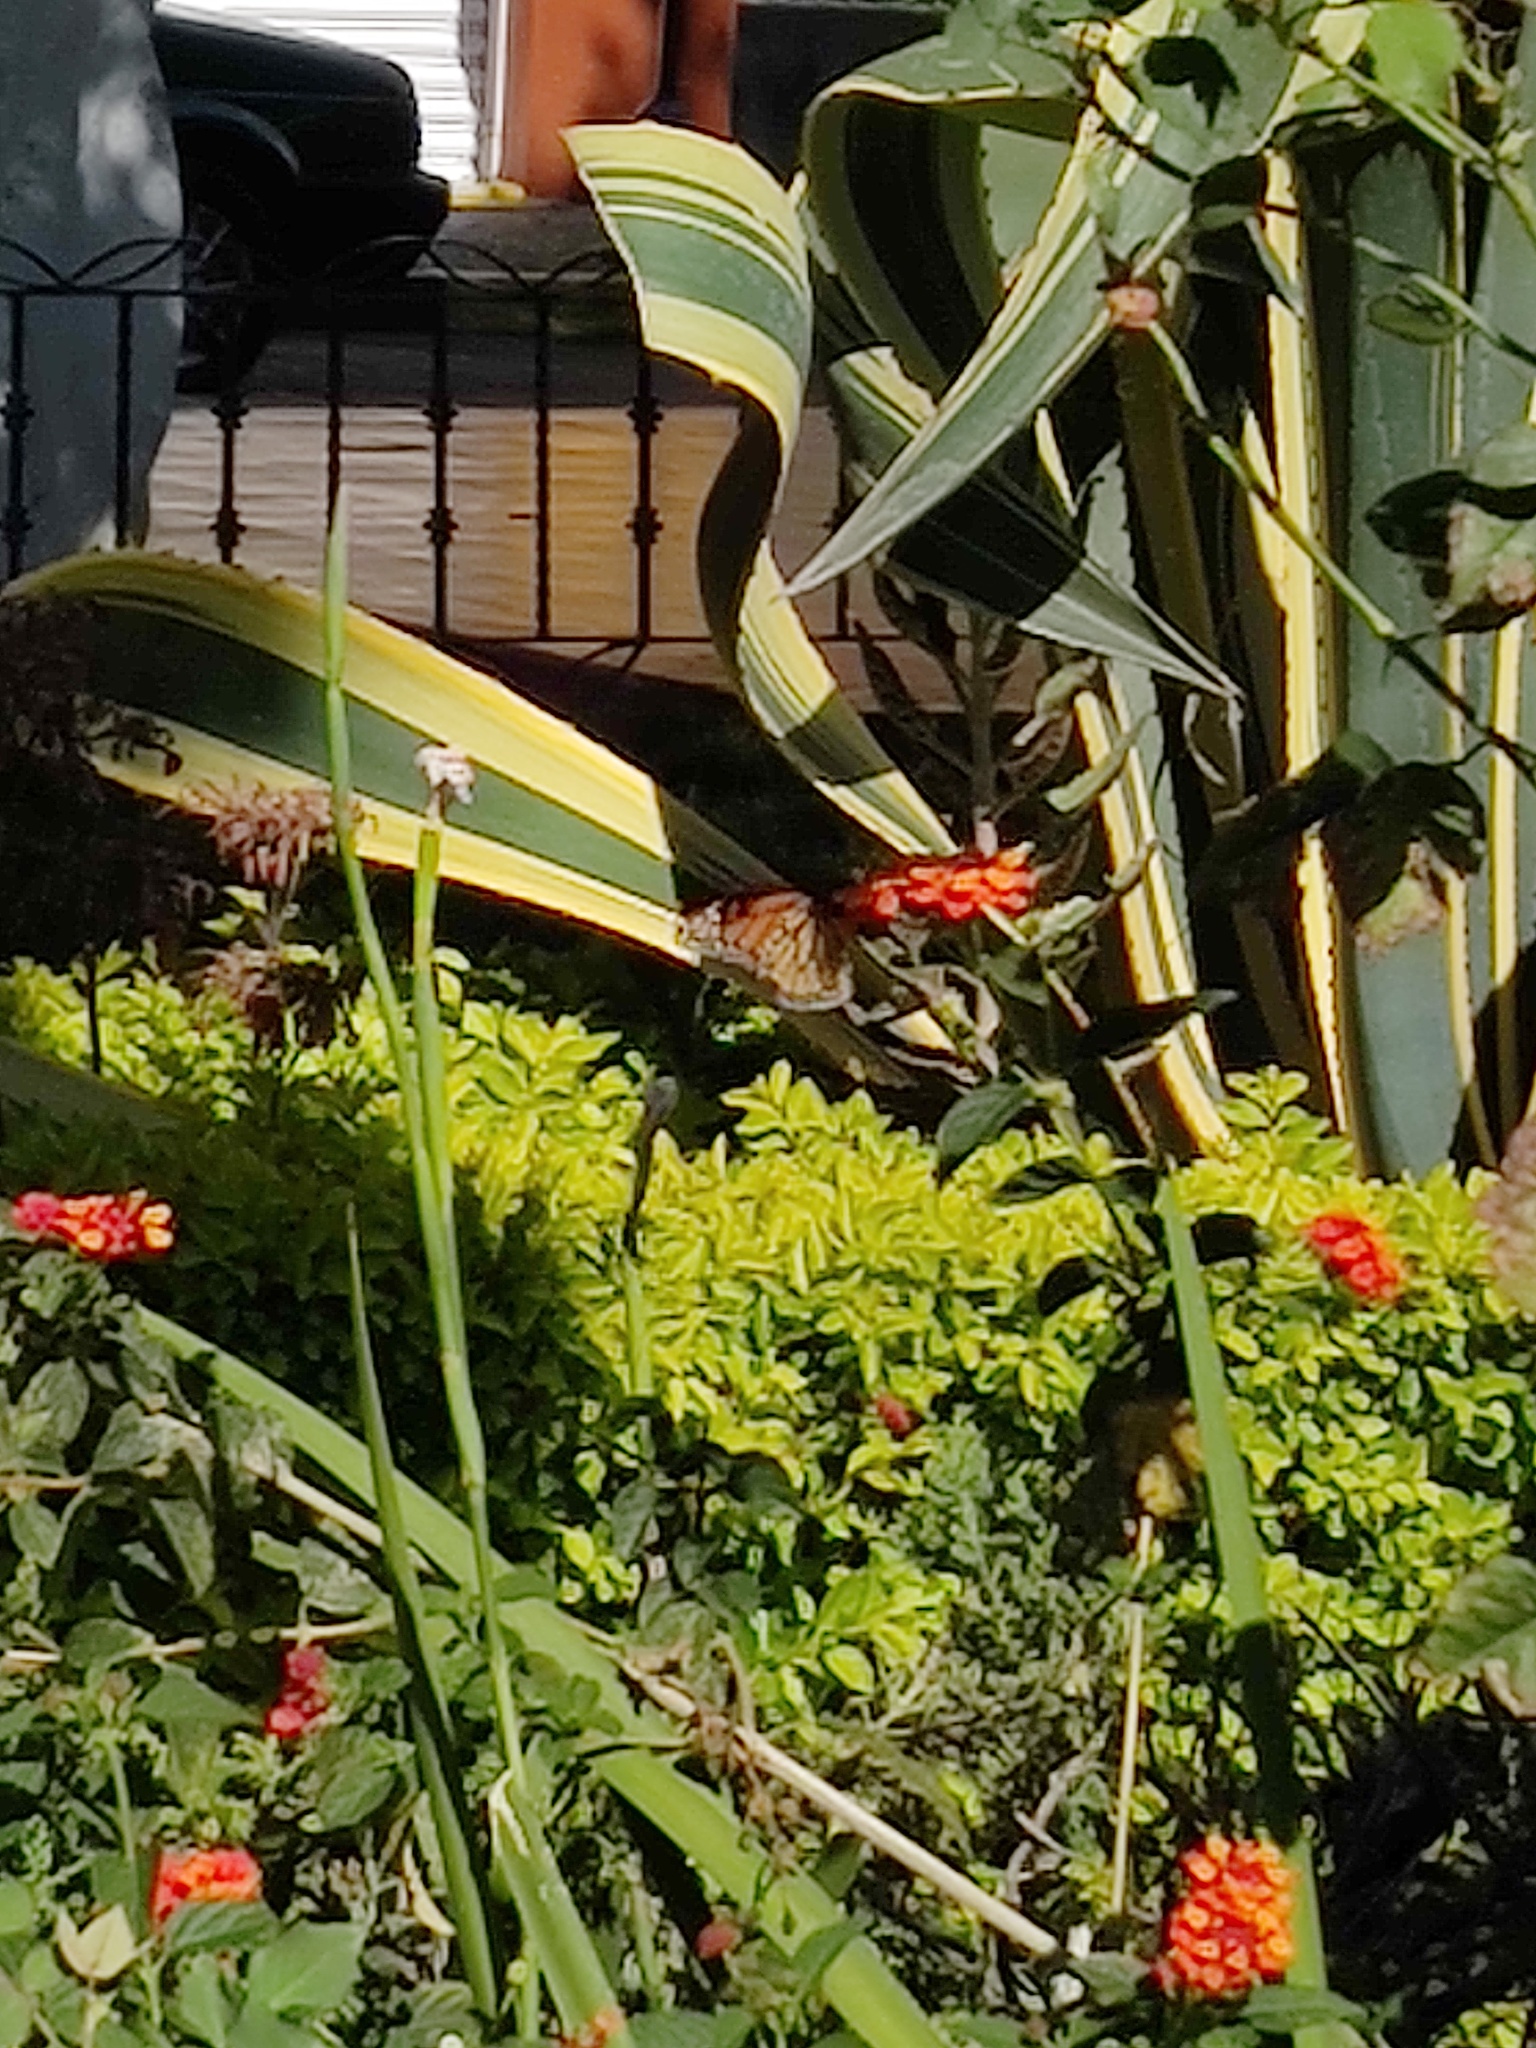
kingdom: Animalia
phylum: Arthropoda
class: Insecta
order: Lepidoptera
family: Nymphalidae
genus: Danaus
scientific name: Danaus plexippus
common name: Monarch
